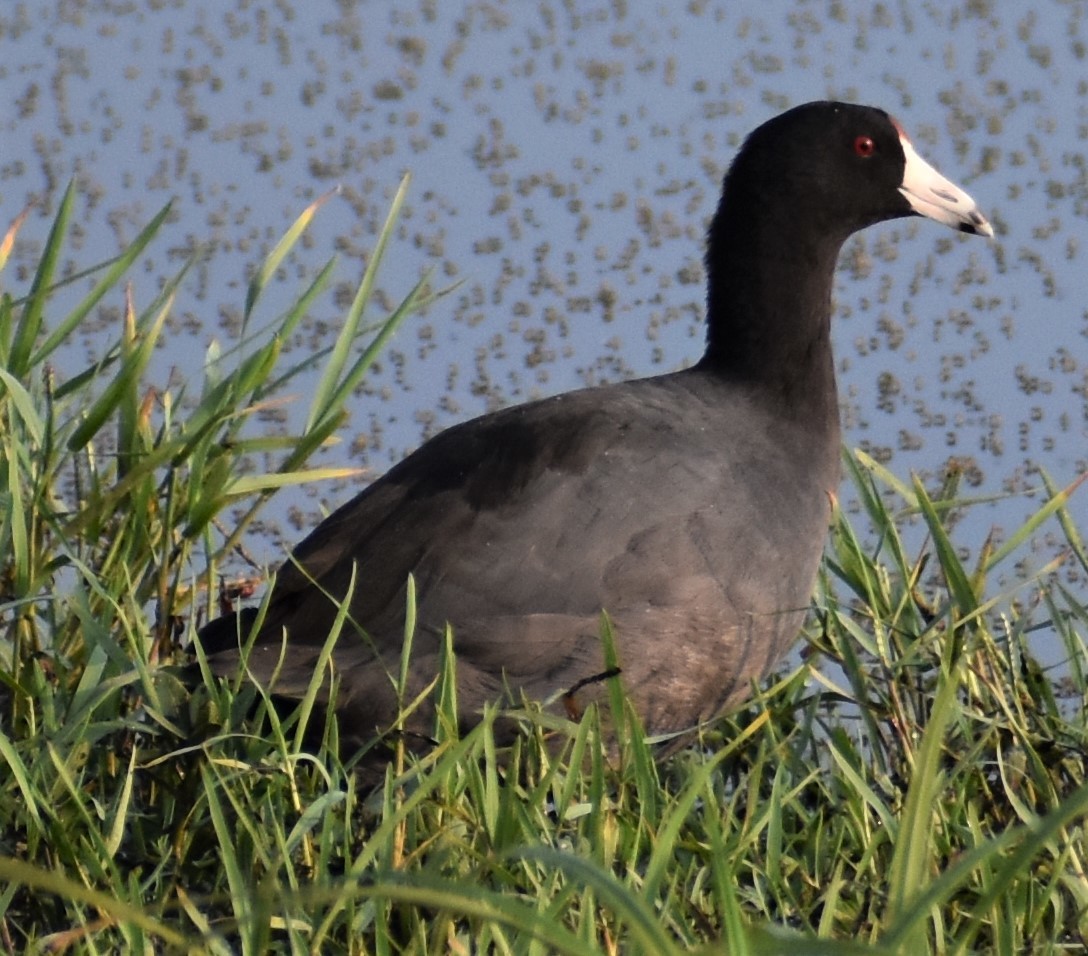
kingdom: Animalia
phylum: Chordata
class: Aves
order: Gruiformes
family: Rallidae
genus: Fulica
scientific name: Fulica americana
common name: American coot
